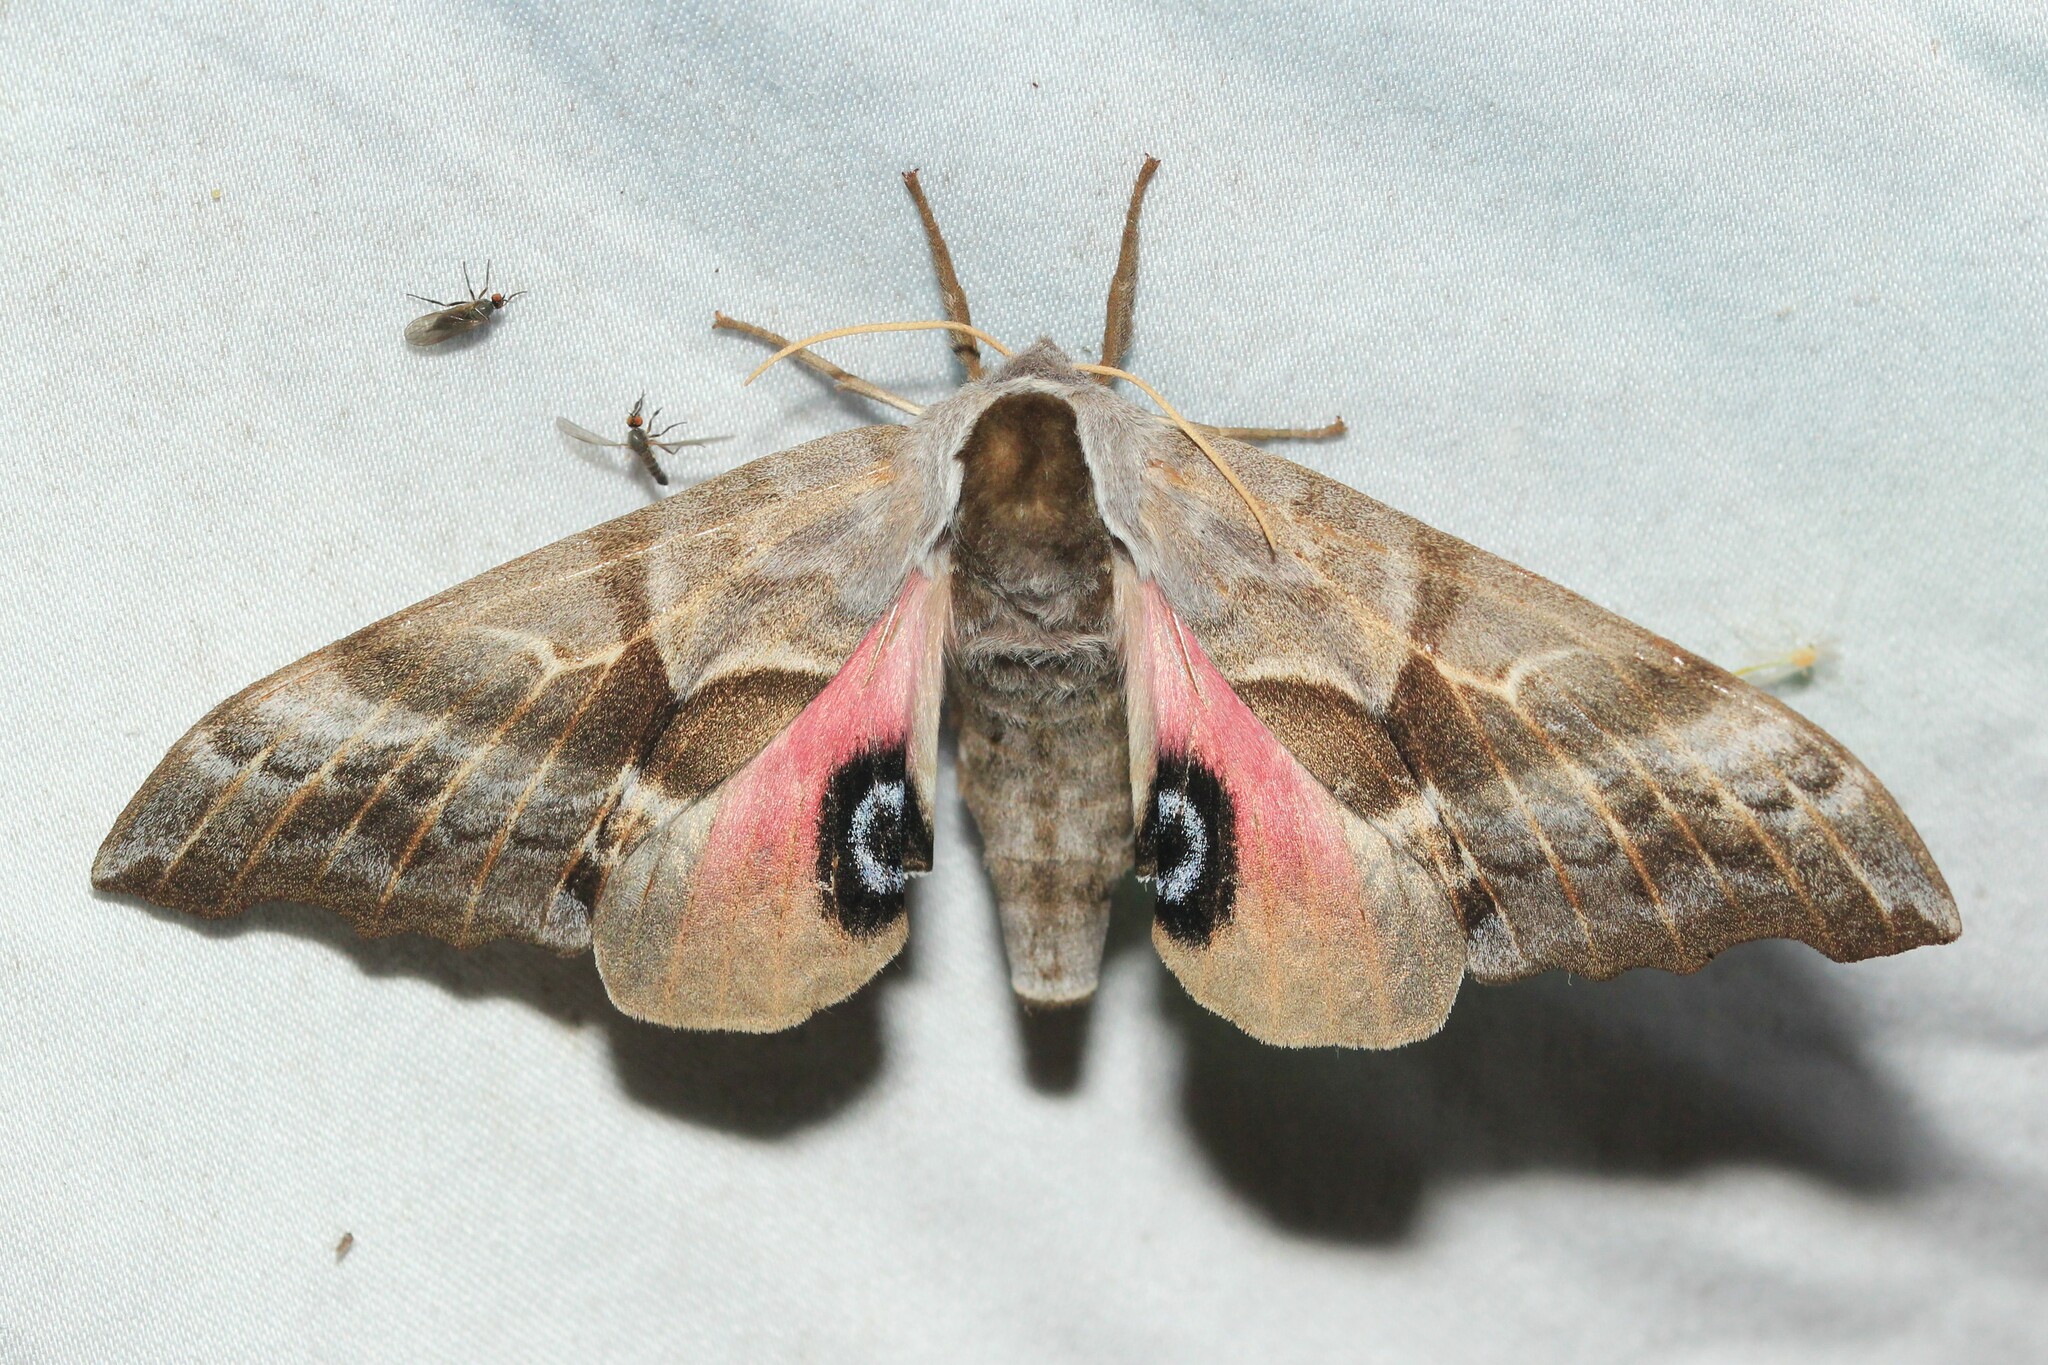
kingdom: Animalia
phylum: Arthropoda
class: Insecta
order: Lepidoptera
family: Sphingidae
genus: Smerinthus
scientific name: Smerinthus cerisyi
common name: Cerisy's sphinx moth
